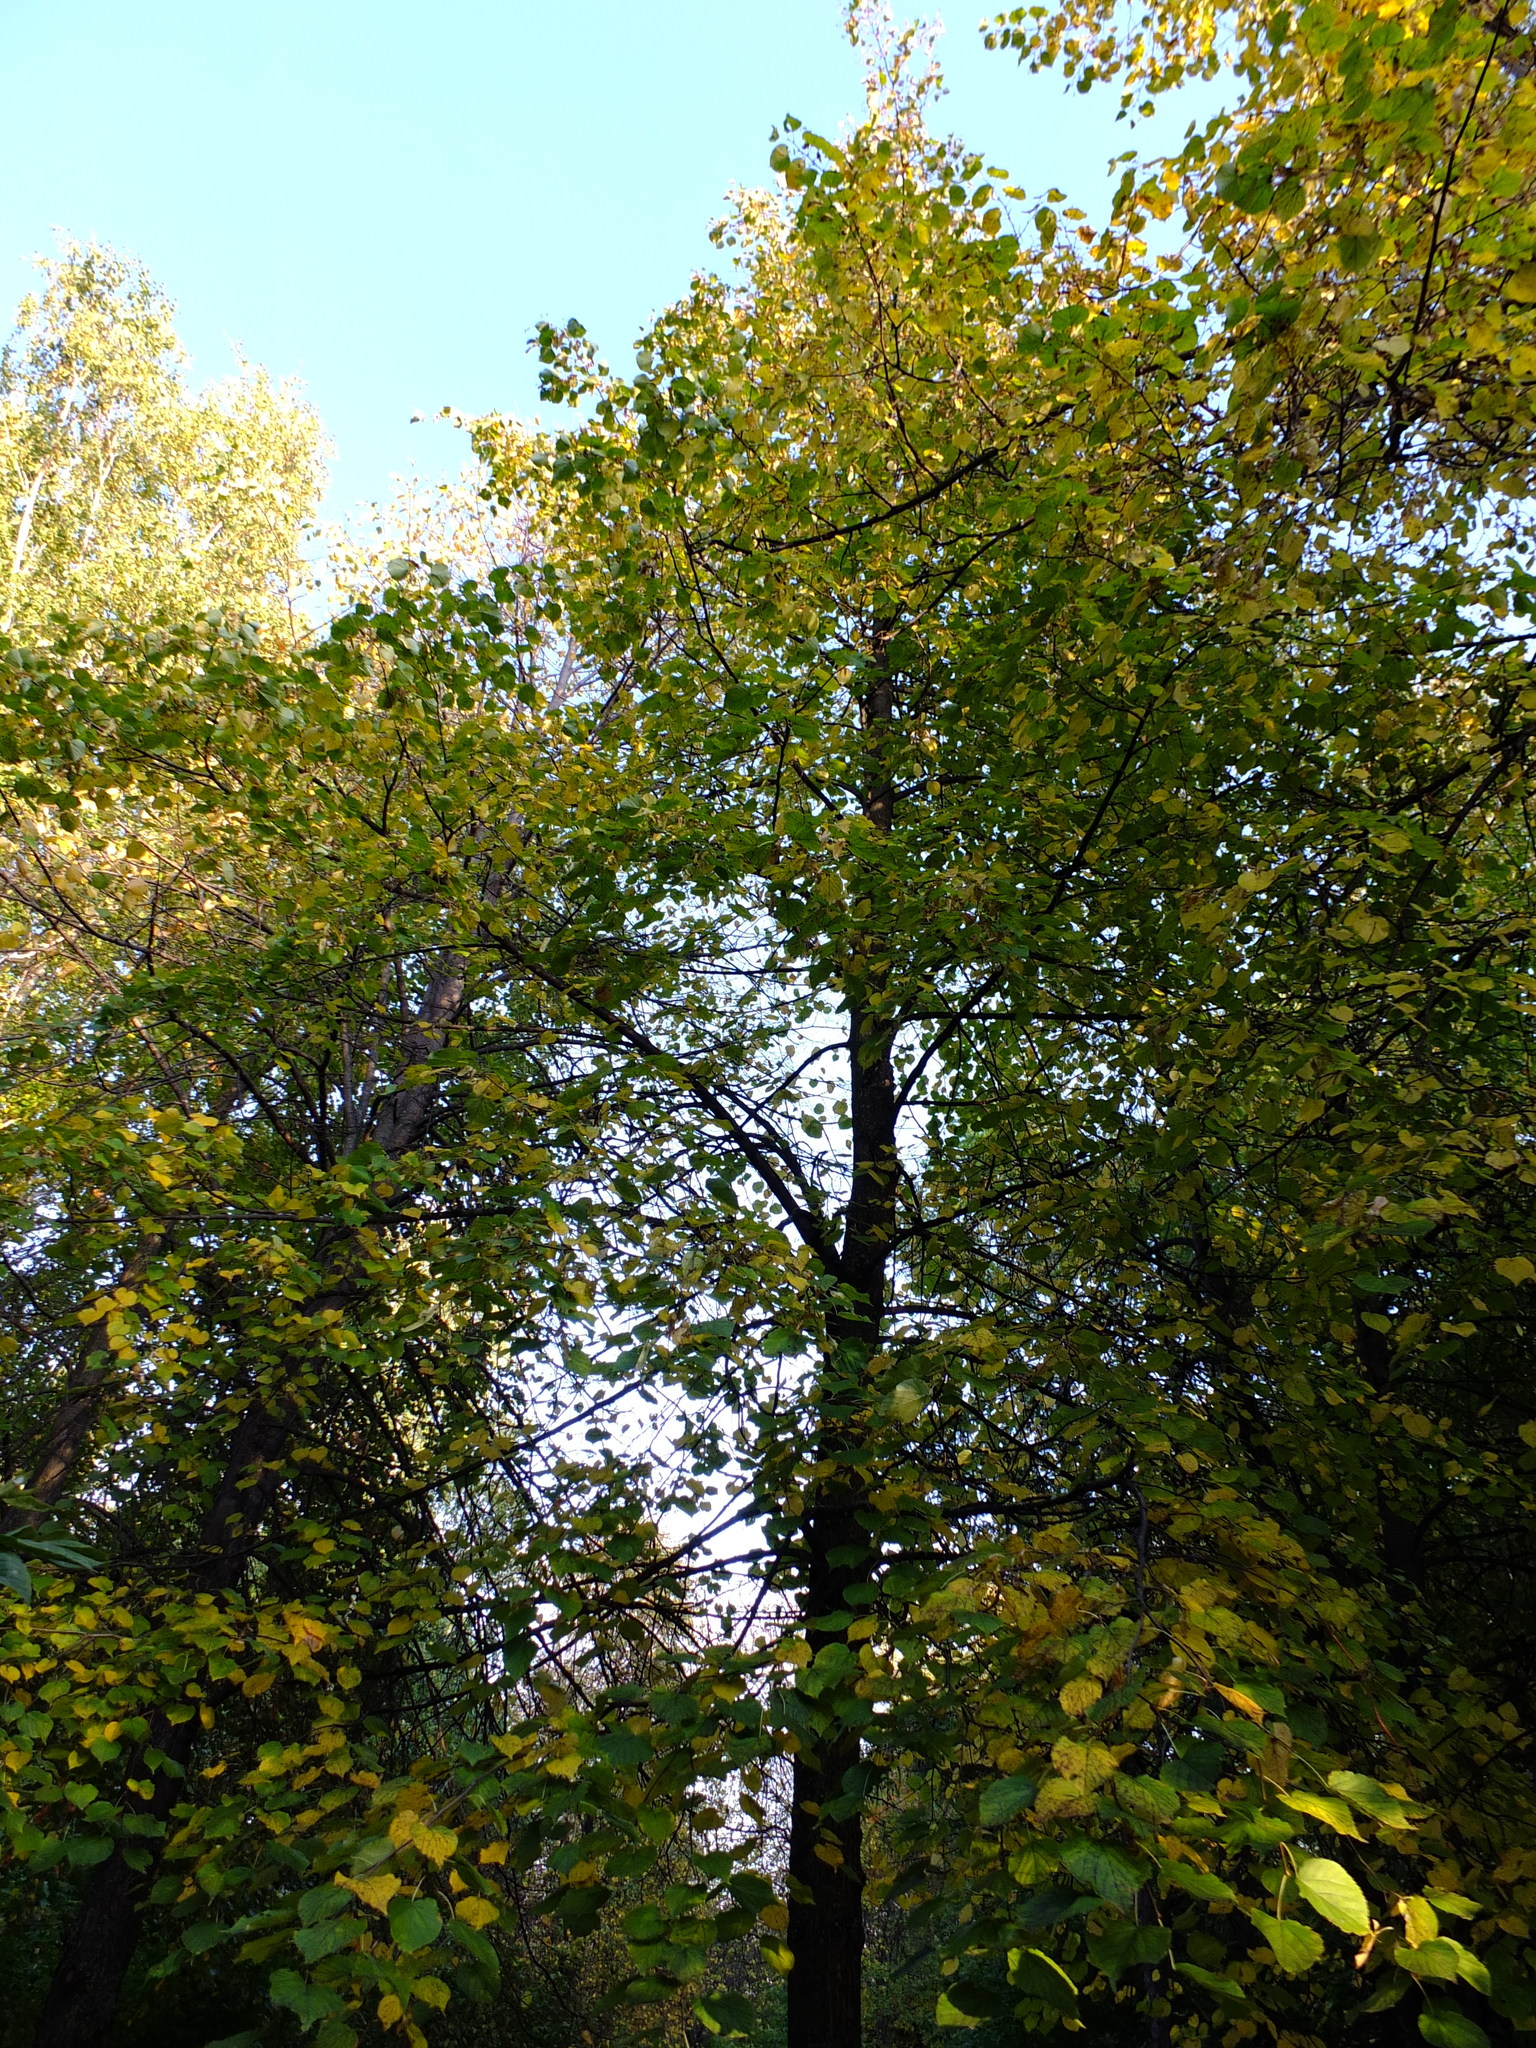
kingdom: Plantae
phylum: Tracheophyta
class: Magnoliopsida
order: Malvales
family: Malvaceae
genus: Tilia
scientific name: Tilia cordata
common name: Small-leaved lime
